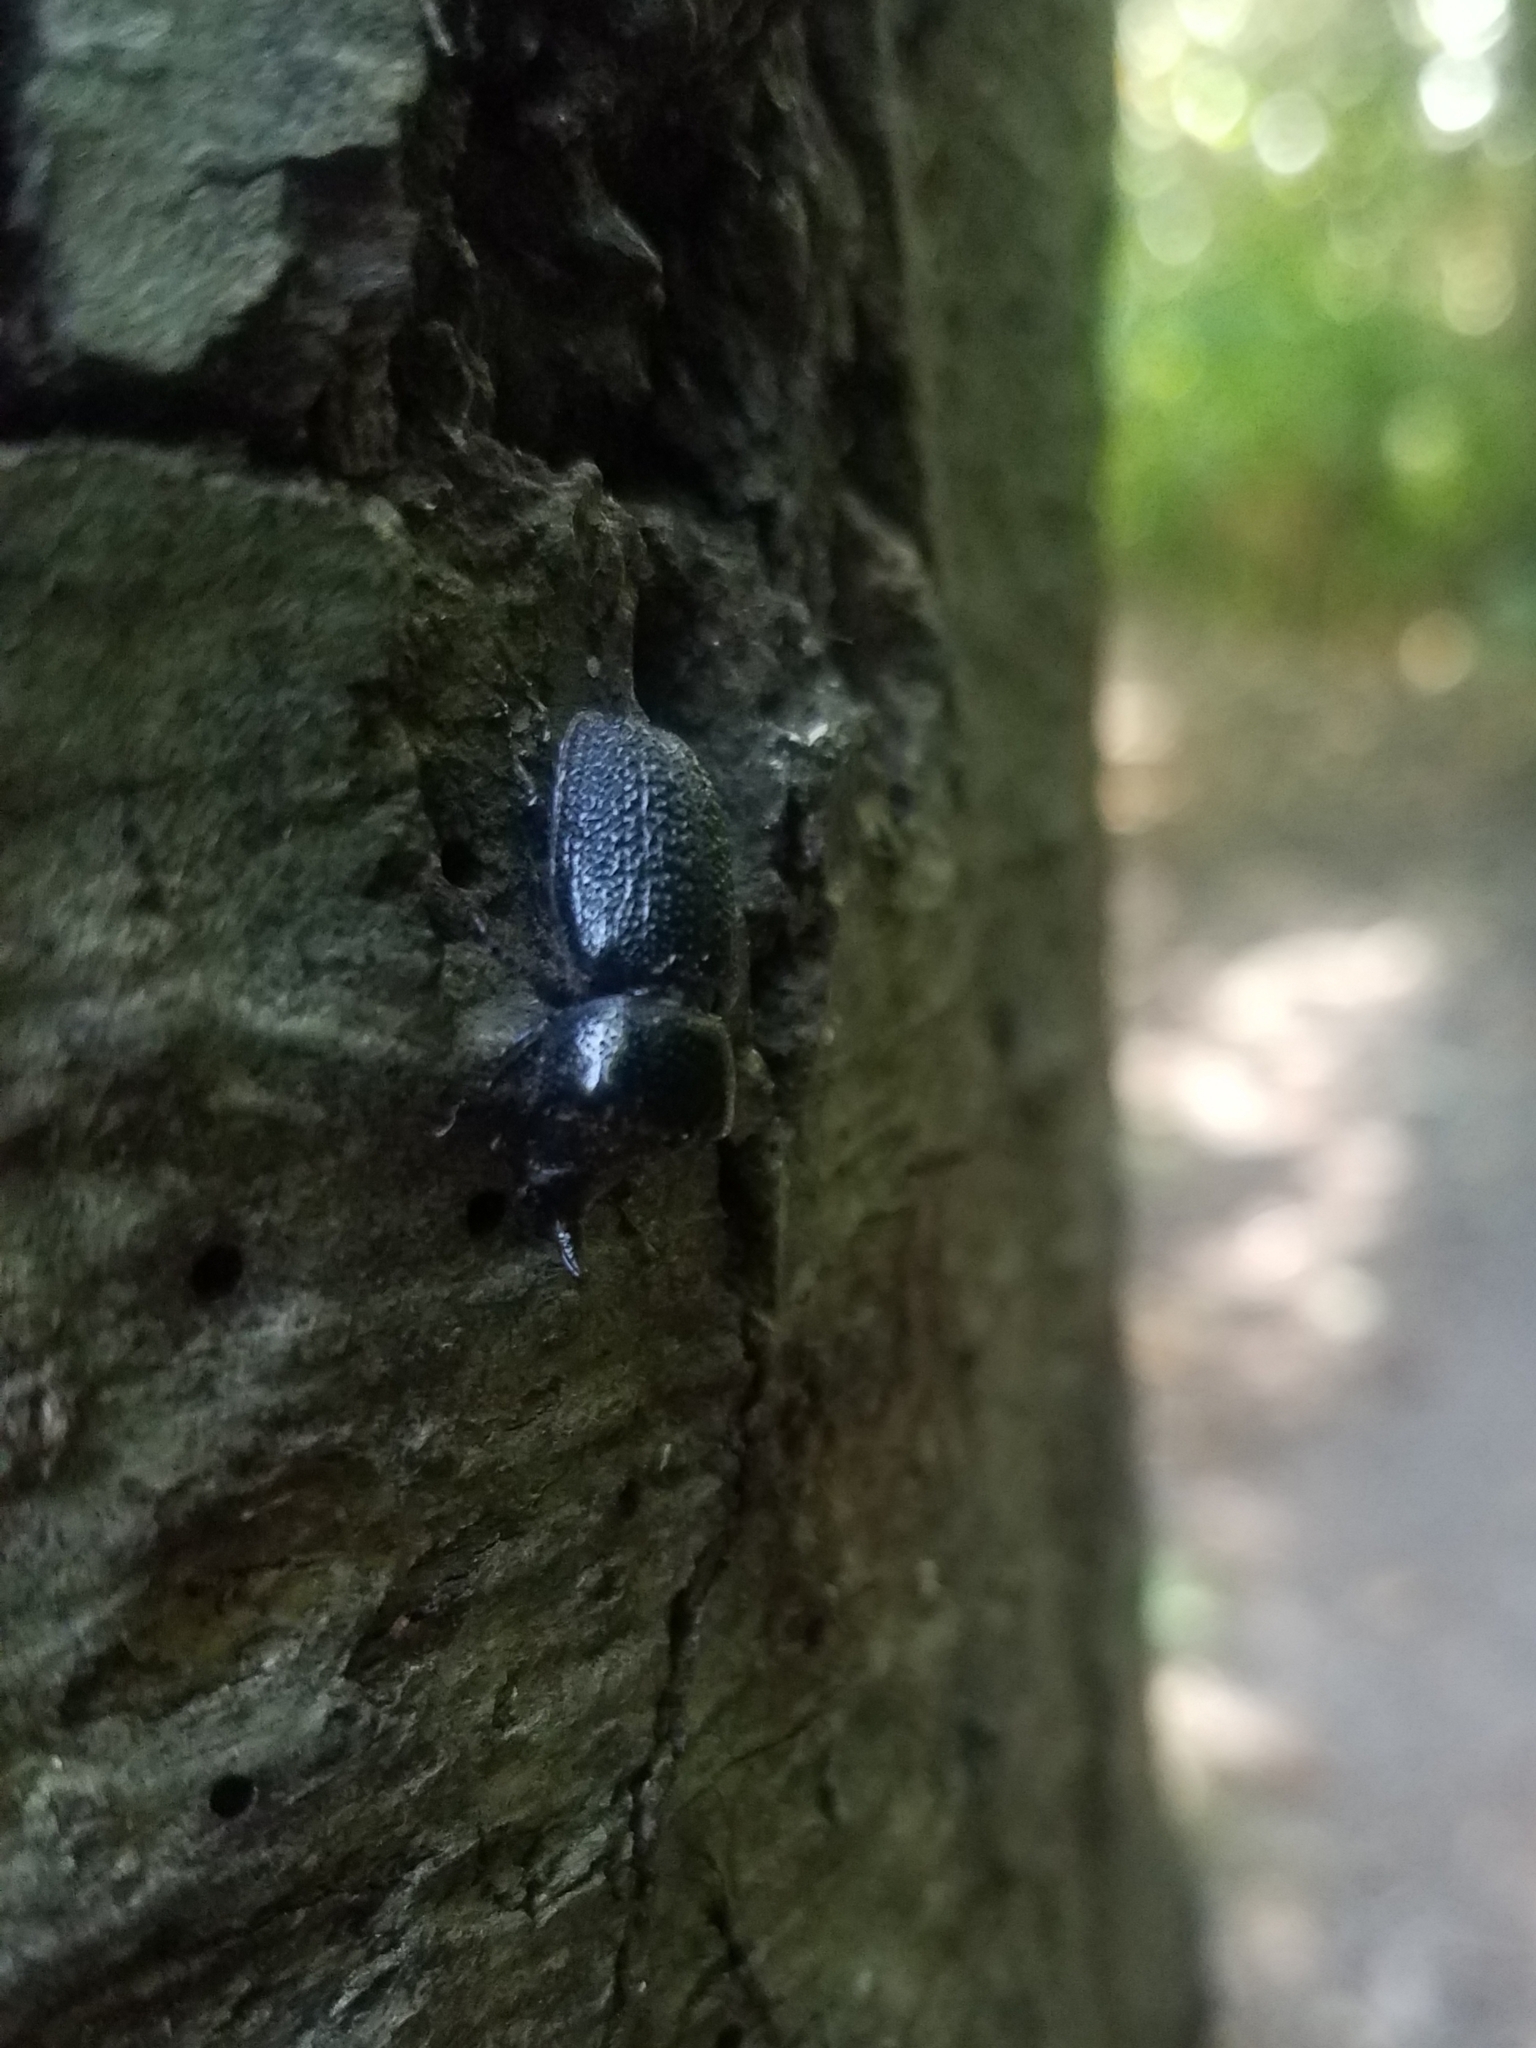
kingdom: Animalia
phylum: Arthropoda
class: Insecta
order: Coleoptera
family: Lucanidae
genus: Sinodendron
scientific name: Sinodendron rugosum
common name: Rugose stag beelte
